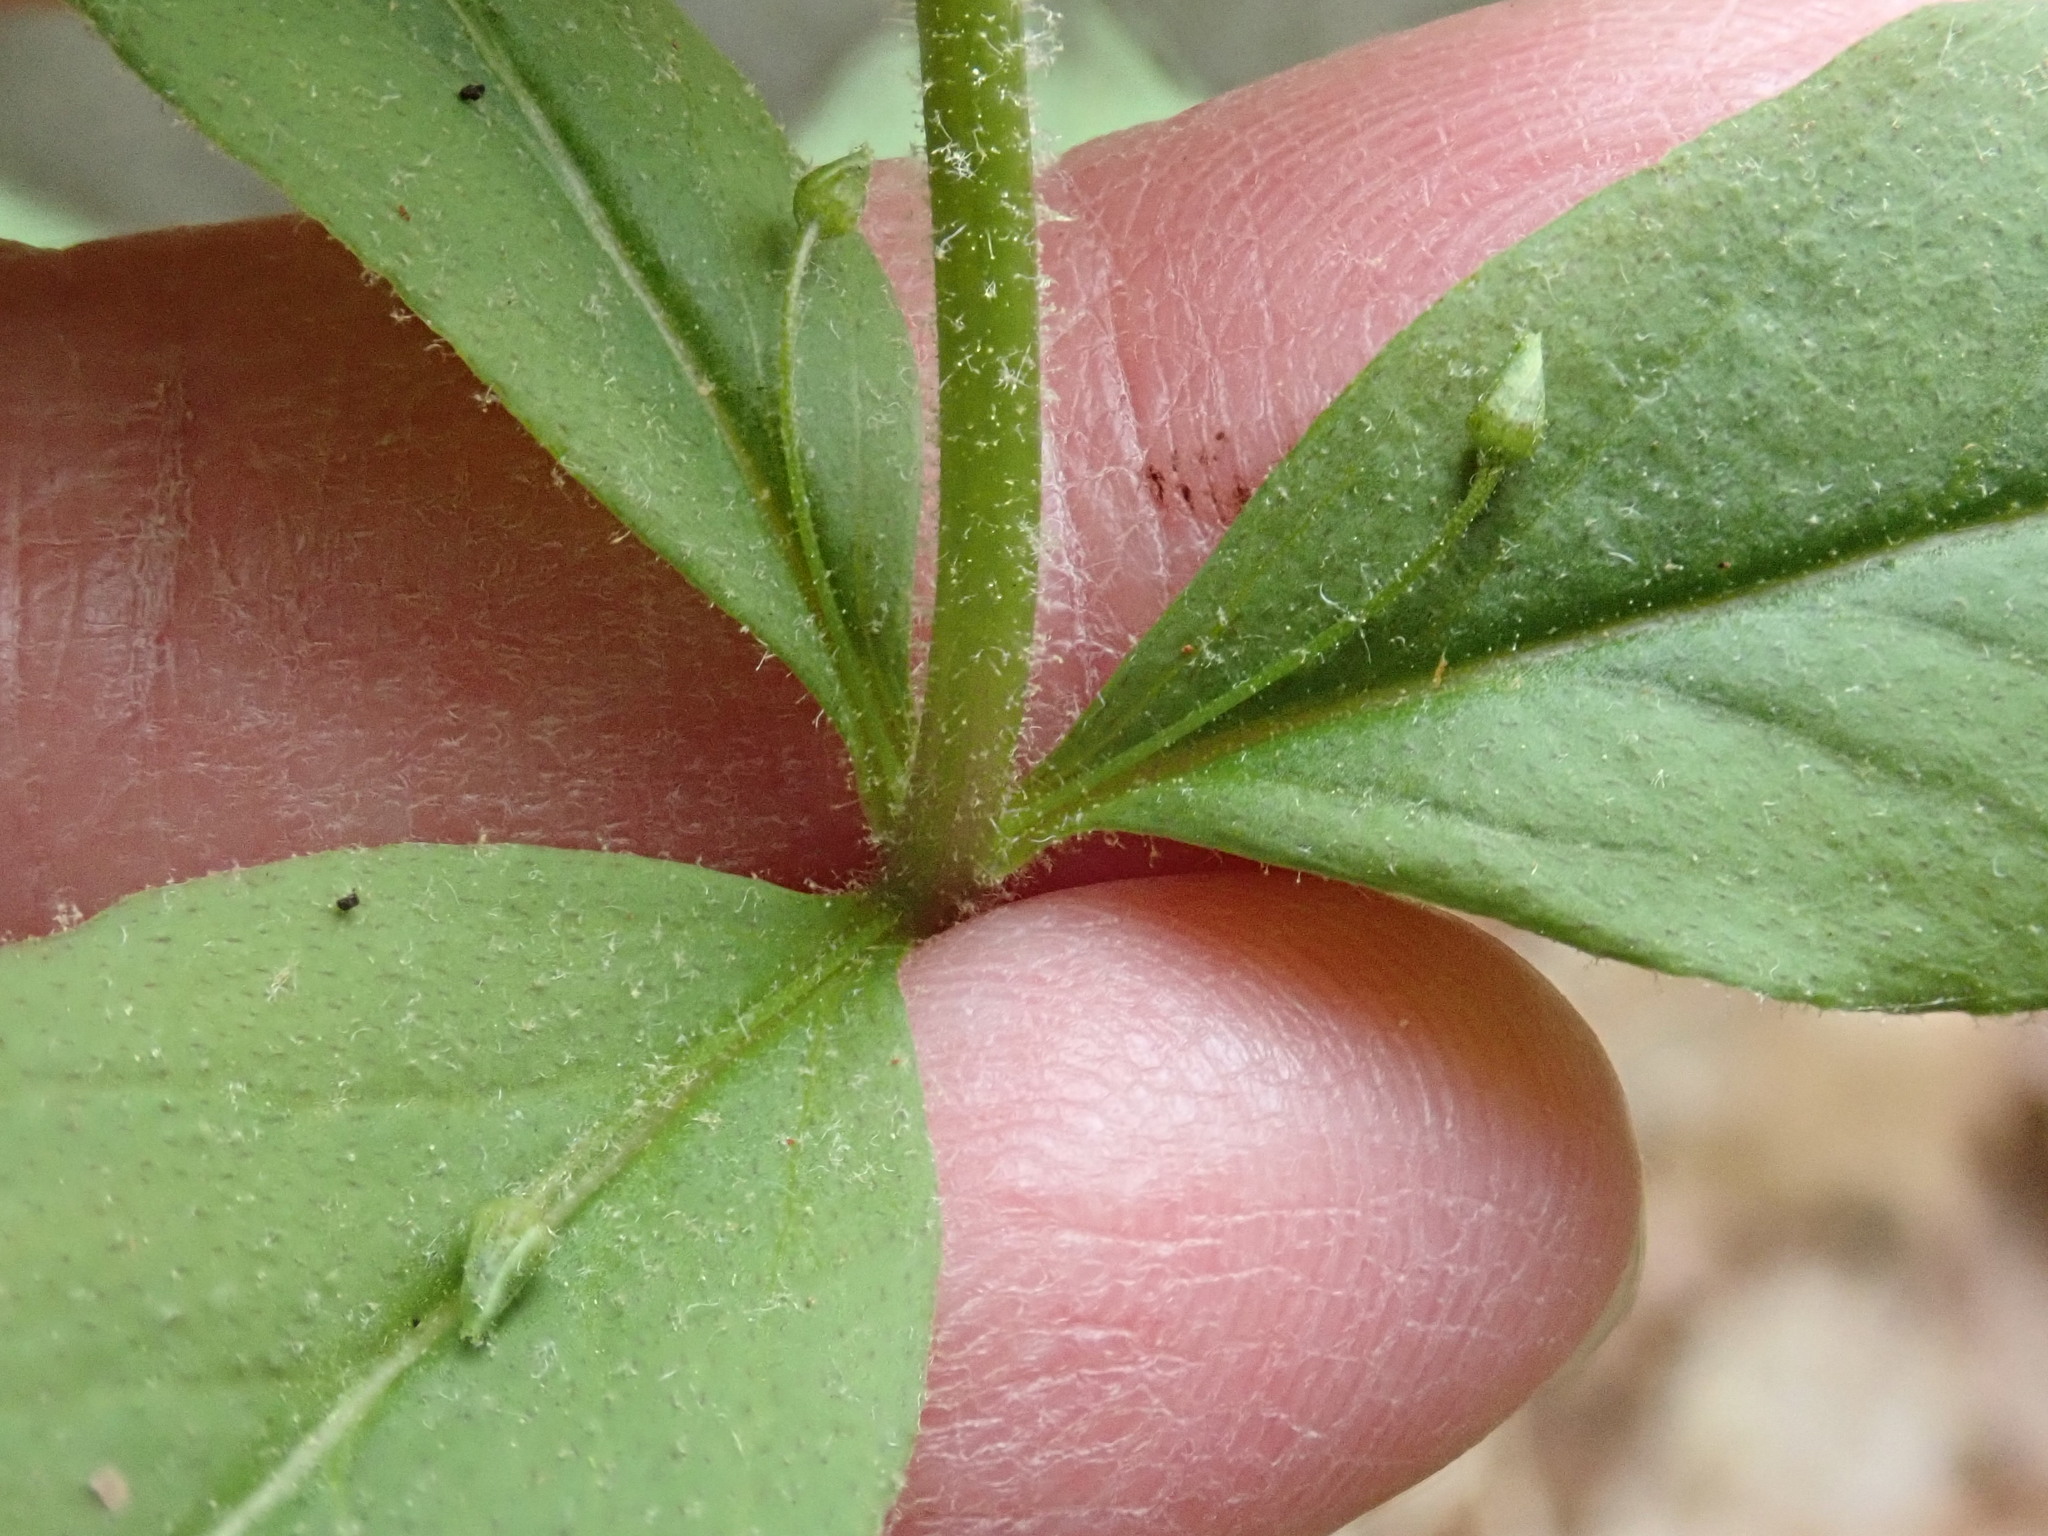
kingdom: Plantae
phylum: Tracheophyta
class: Magnoliopsida
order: Ericales
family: Primulaceae
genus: Lysimachia
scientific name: Lysimachia quadrifolia
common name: Whorled loosestrife
